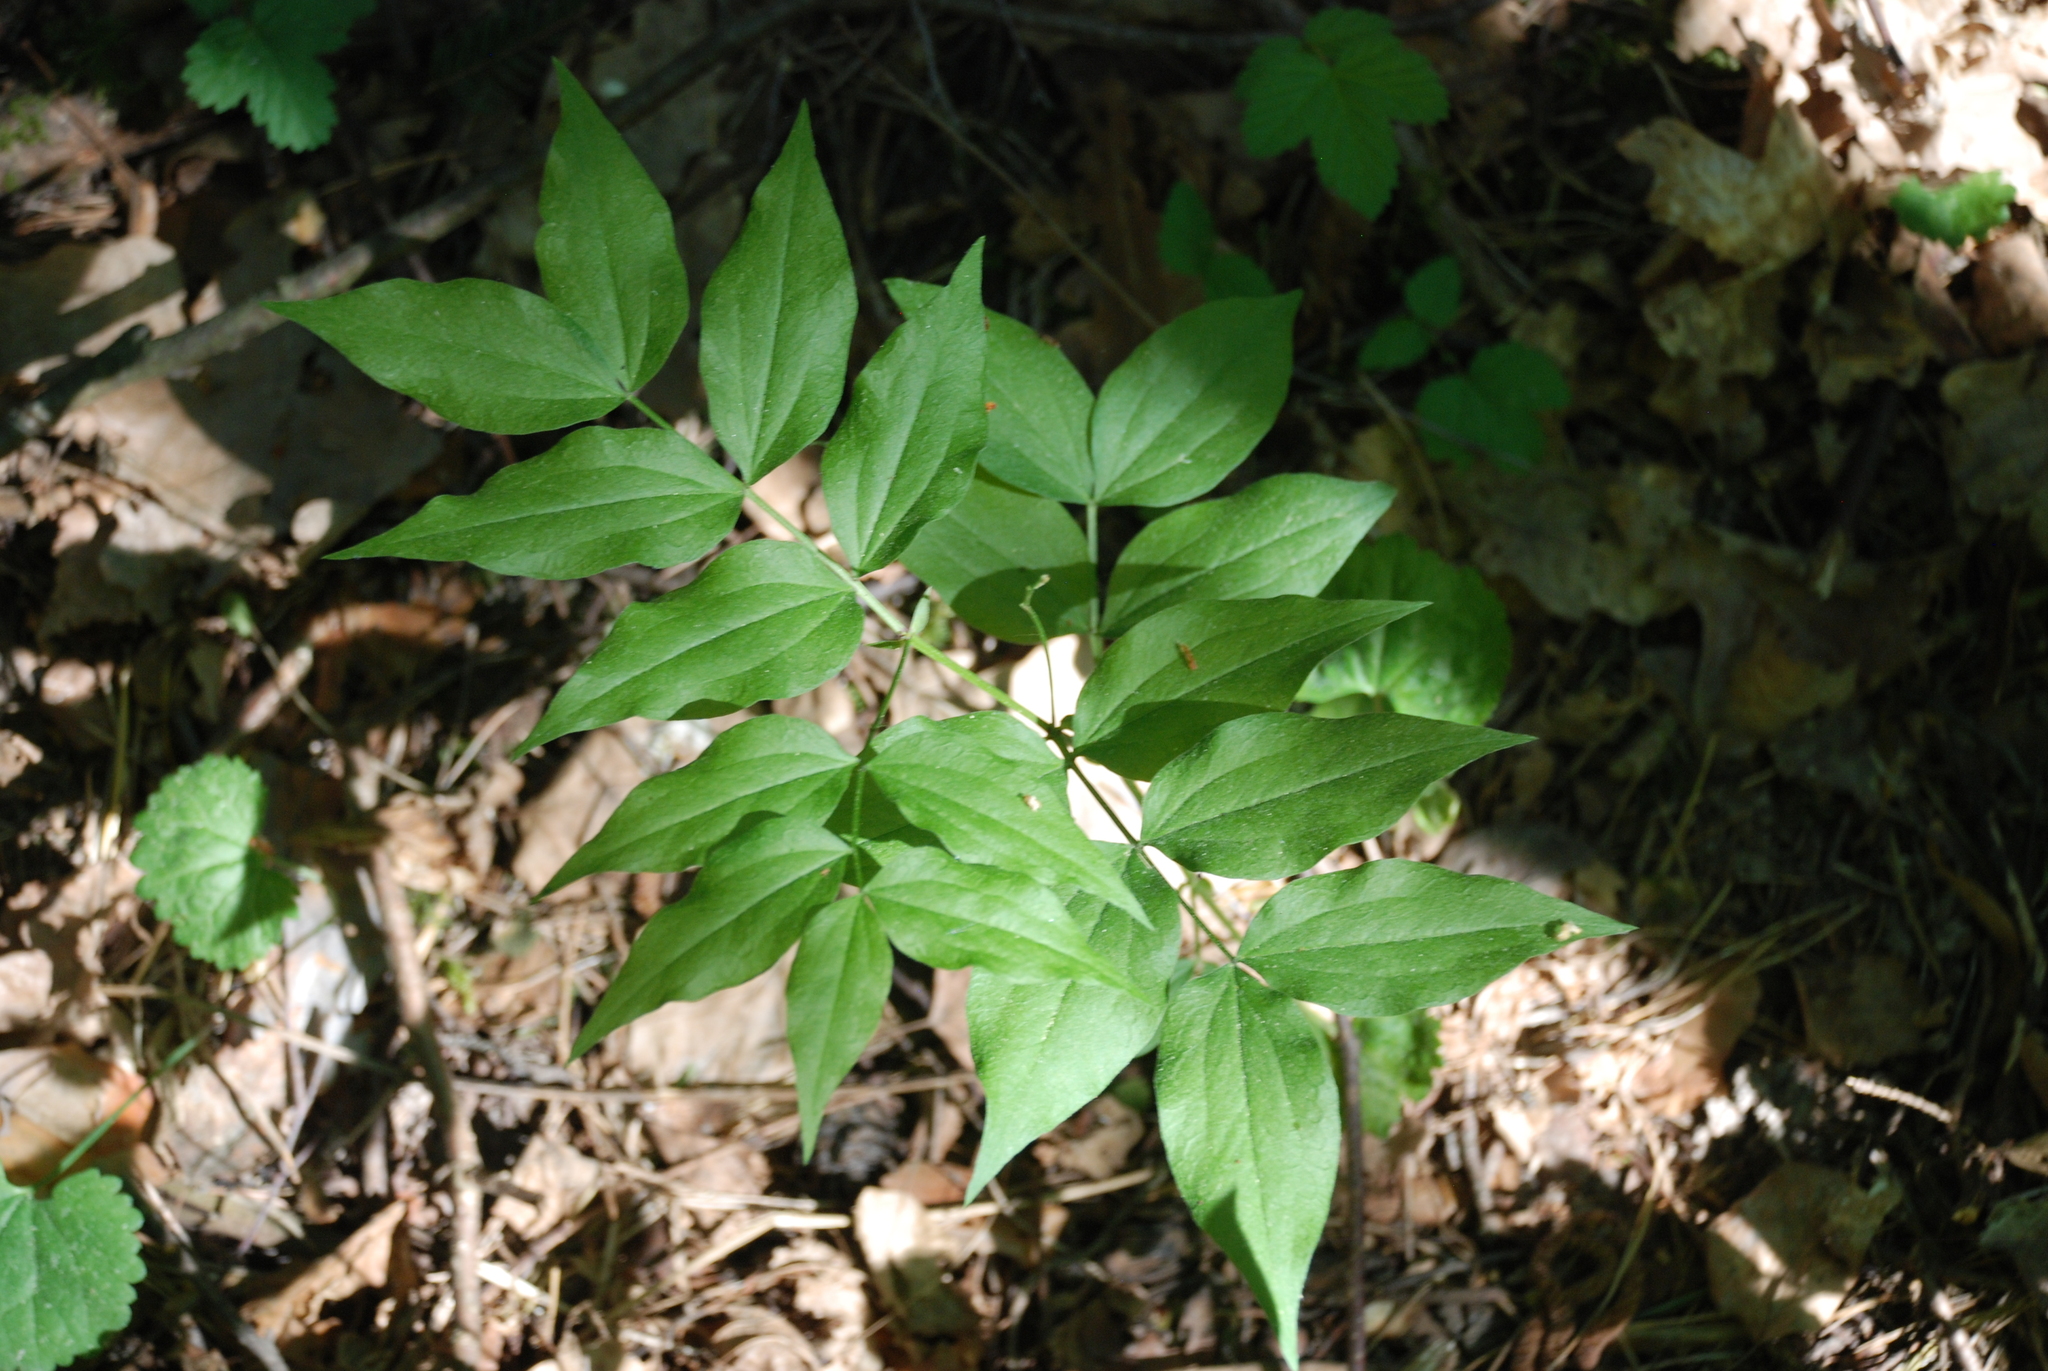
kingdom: Plantae
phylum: Tracheophyta
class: Magnoliopsida
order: Fabales
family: Fabaceae
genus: Lathyrus
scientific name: Lathyrus vernus
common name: Spring pea
